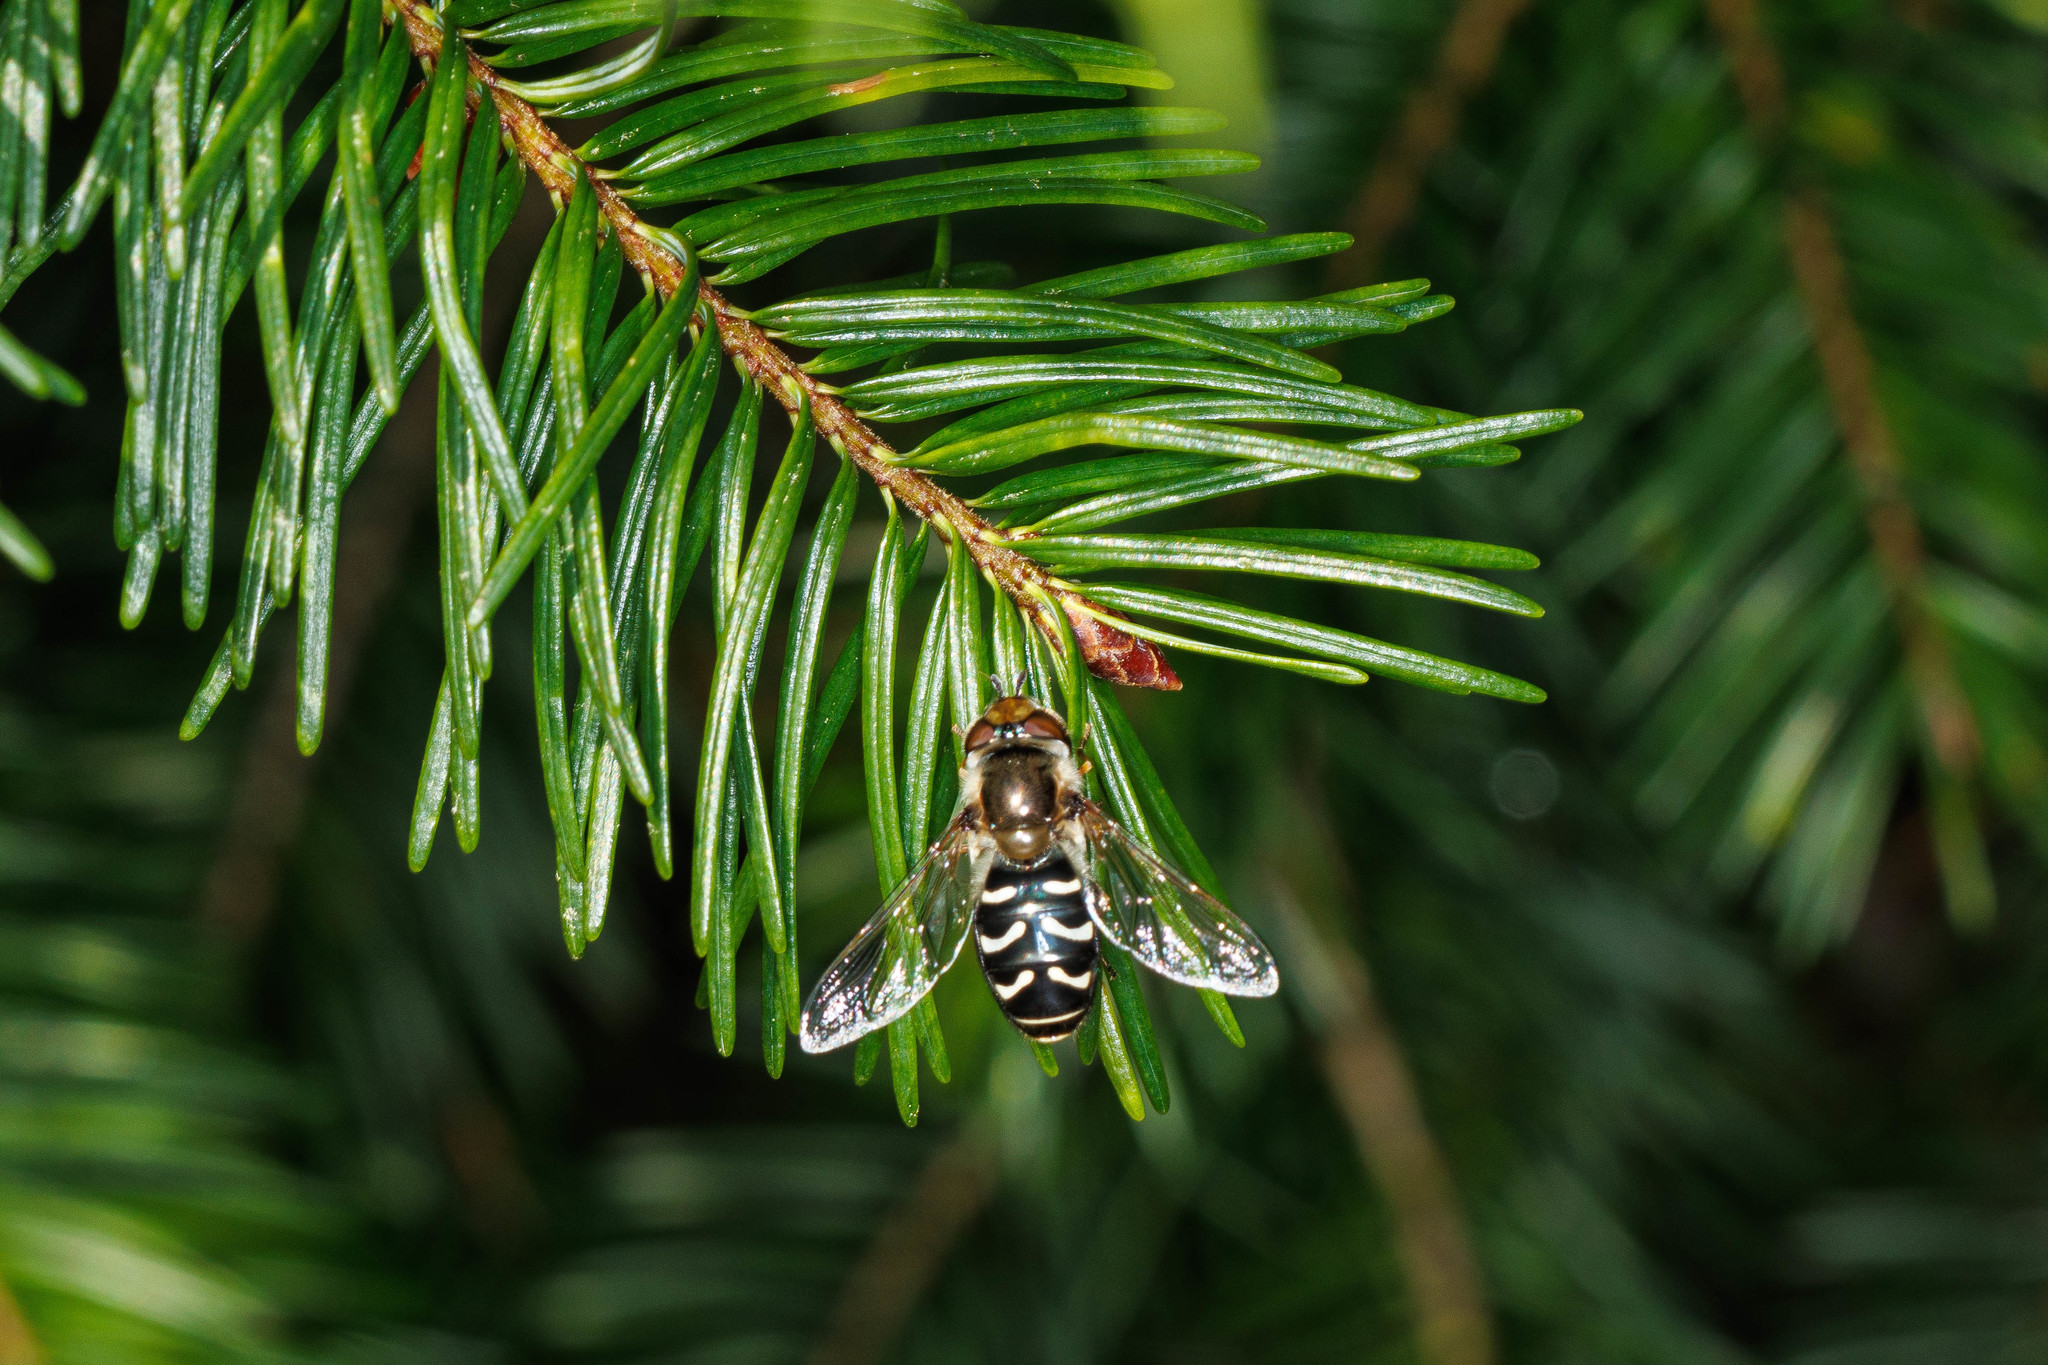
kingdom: Animalia
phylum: Arthropoda
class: Insecta
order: Diptera
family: Syrphidae
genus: Scaeva
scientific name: Scaeva affinis
